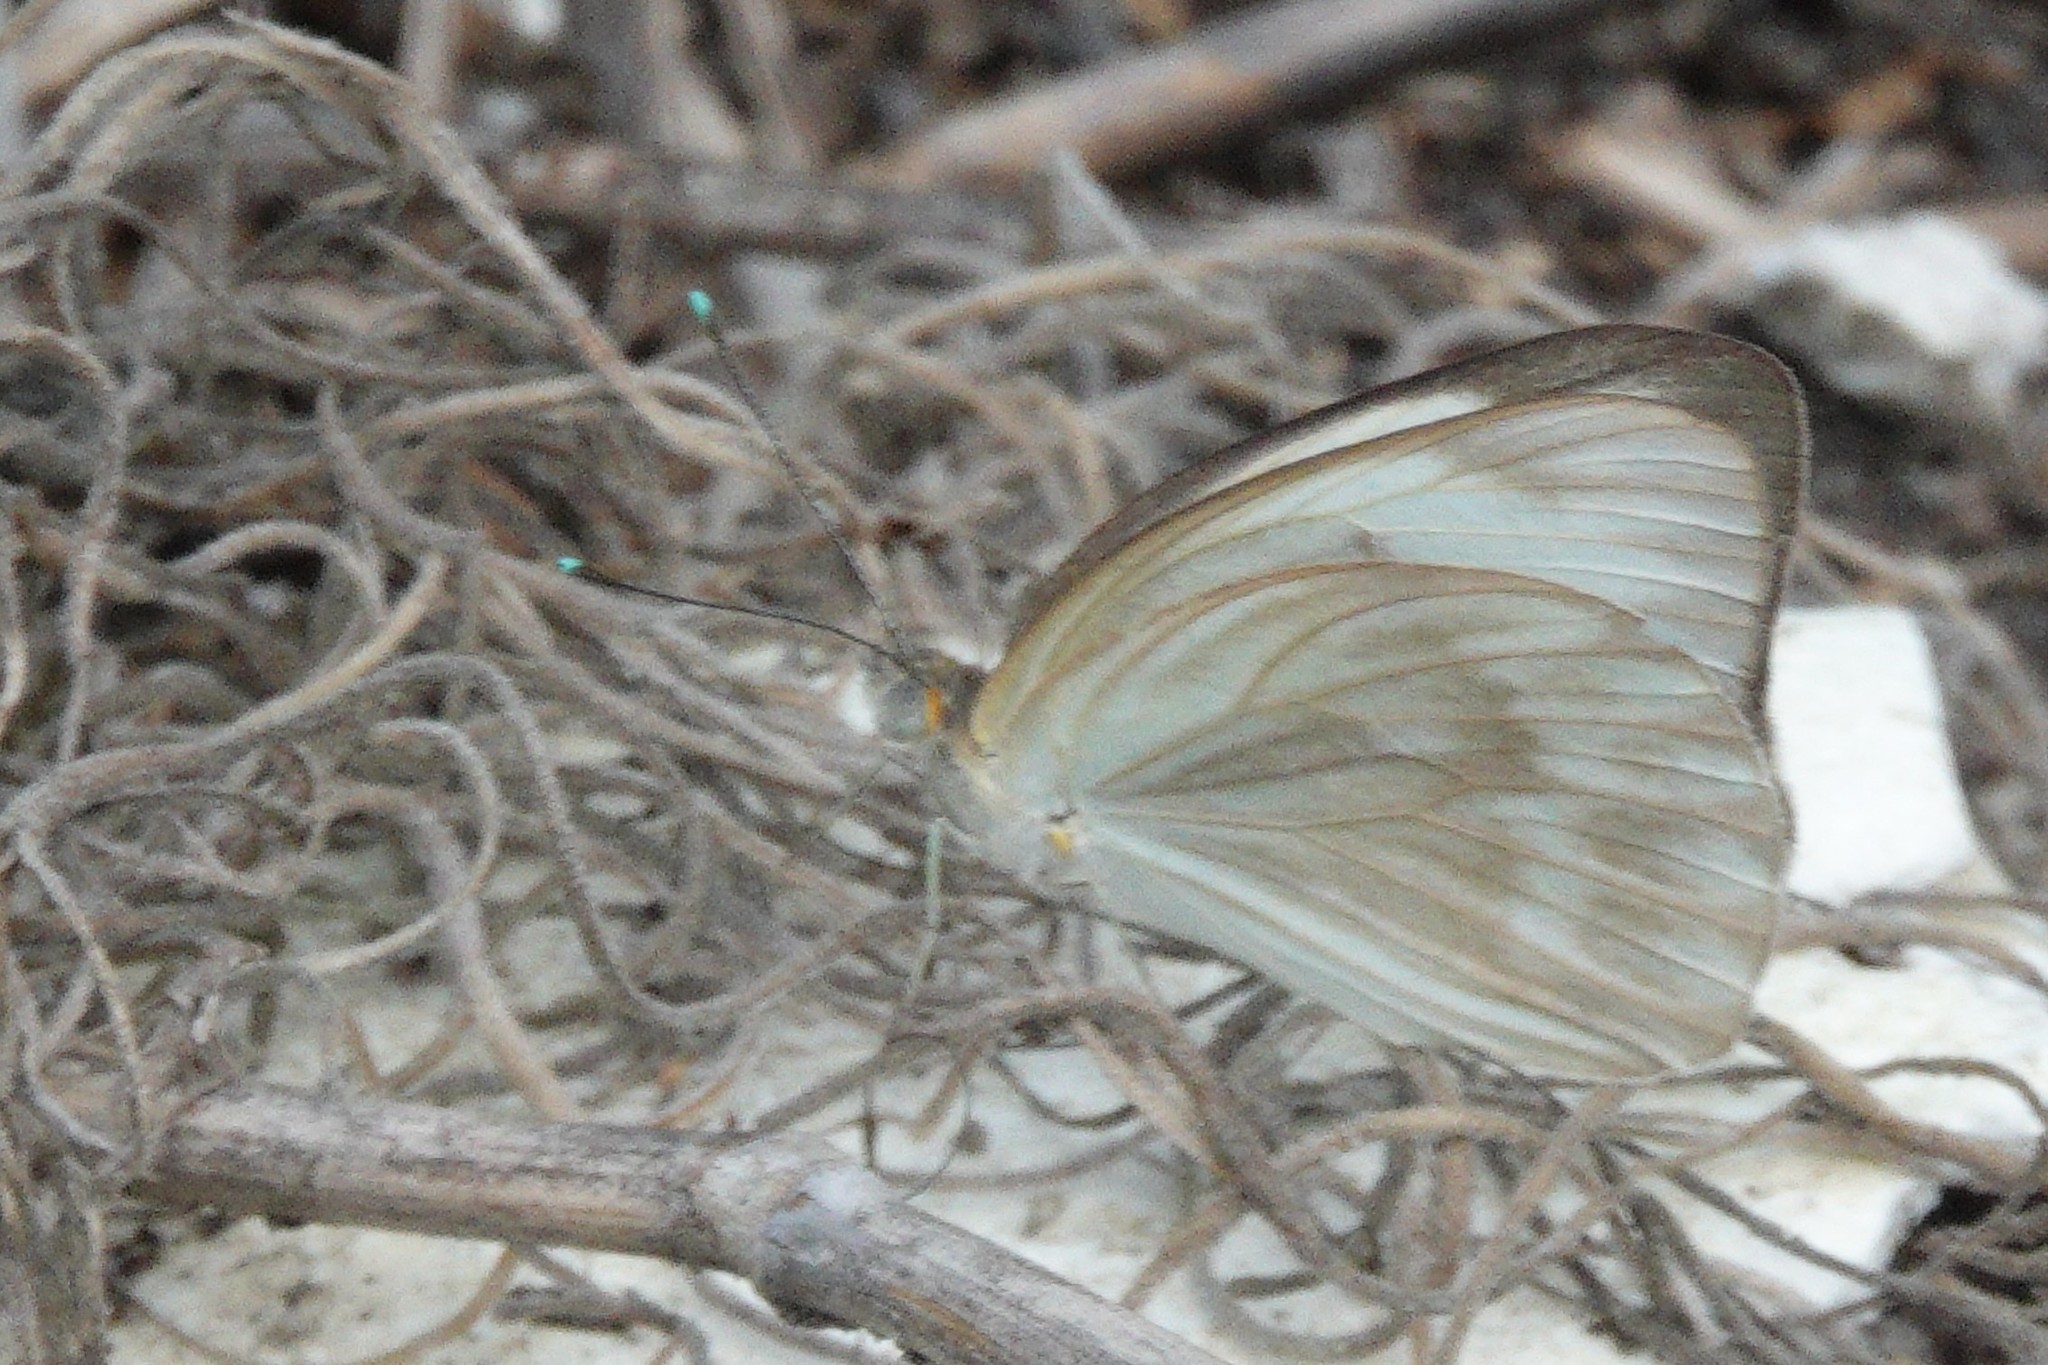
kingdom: Animalia
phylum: Arthropoda
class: Insecta
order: Lepidoptera
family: Pieridae
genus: Ascia
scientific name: Ascia monuste
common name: Great southern white
